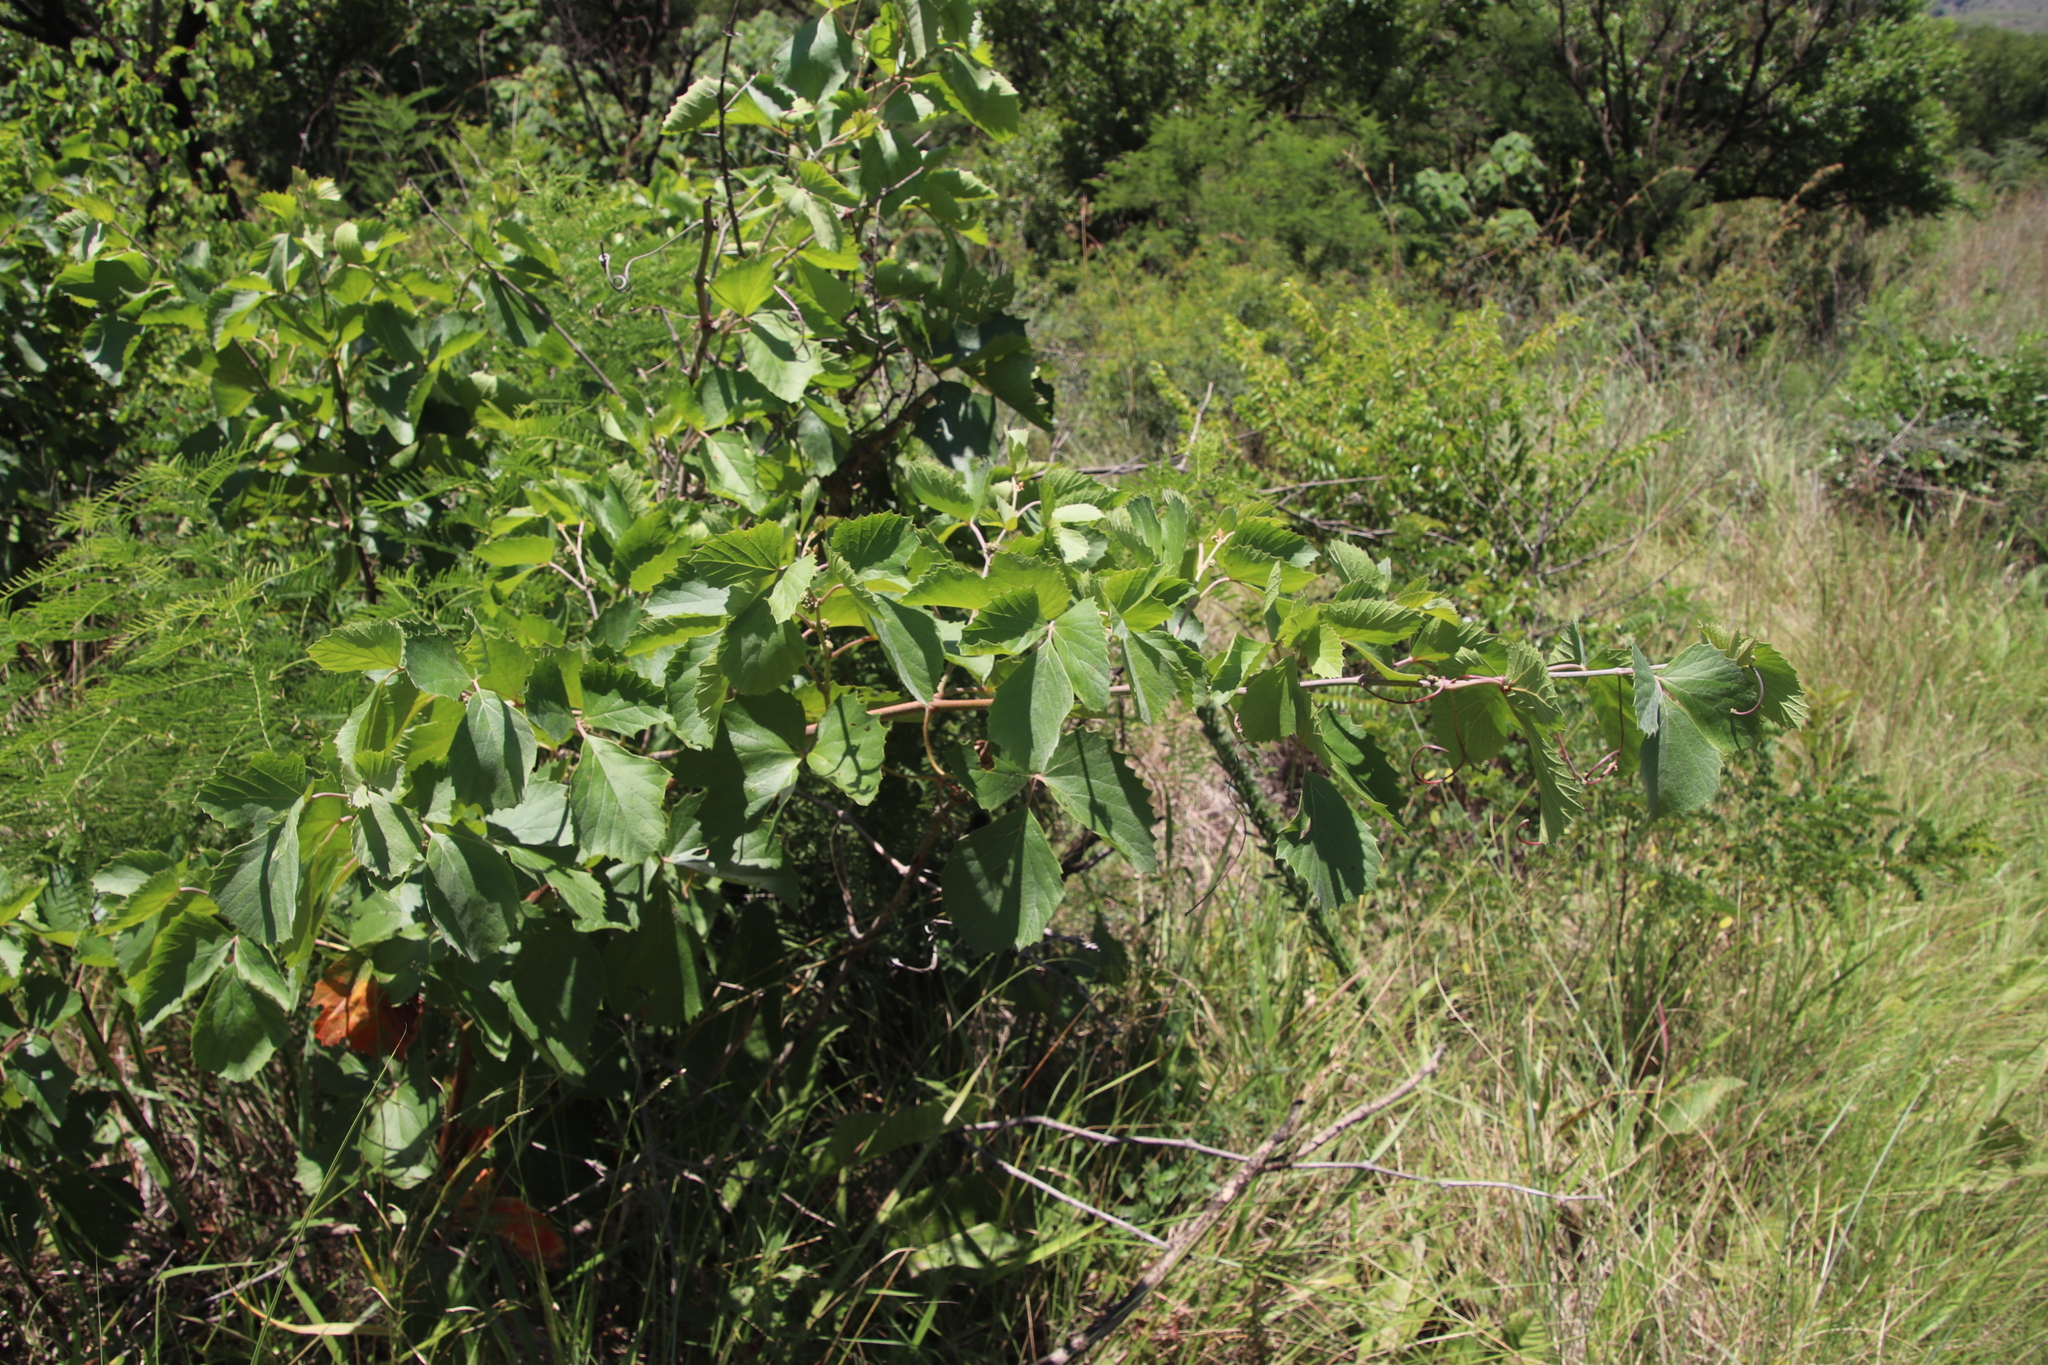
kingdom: Plantae
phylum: Tracheophyta
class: Magnoliopsida
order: Vitales
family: Vitaceae
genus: Rhoicissus
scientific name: Rhoicissus tridentata
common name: Common forest grape
